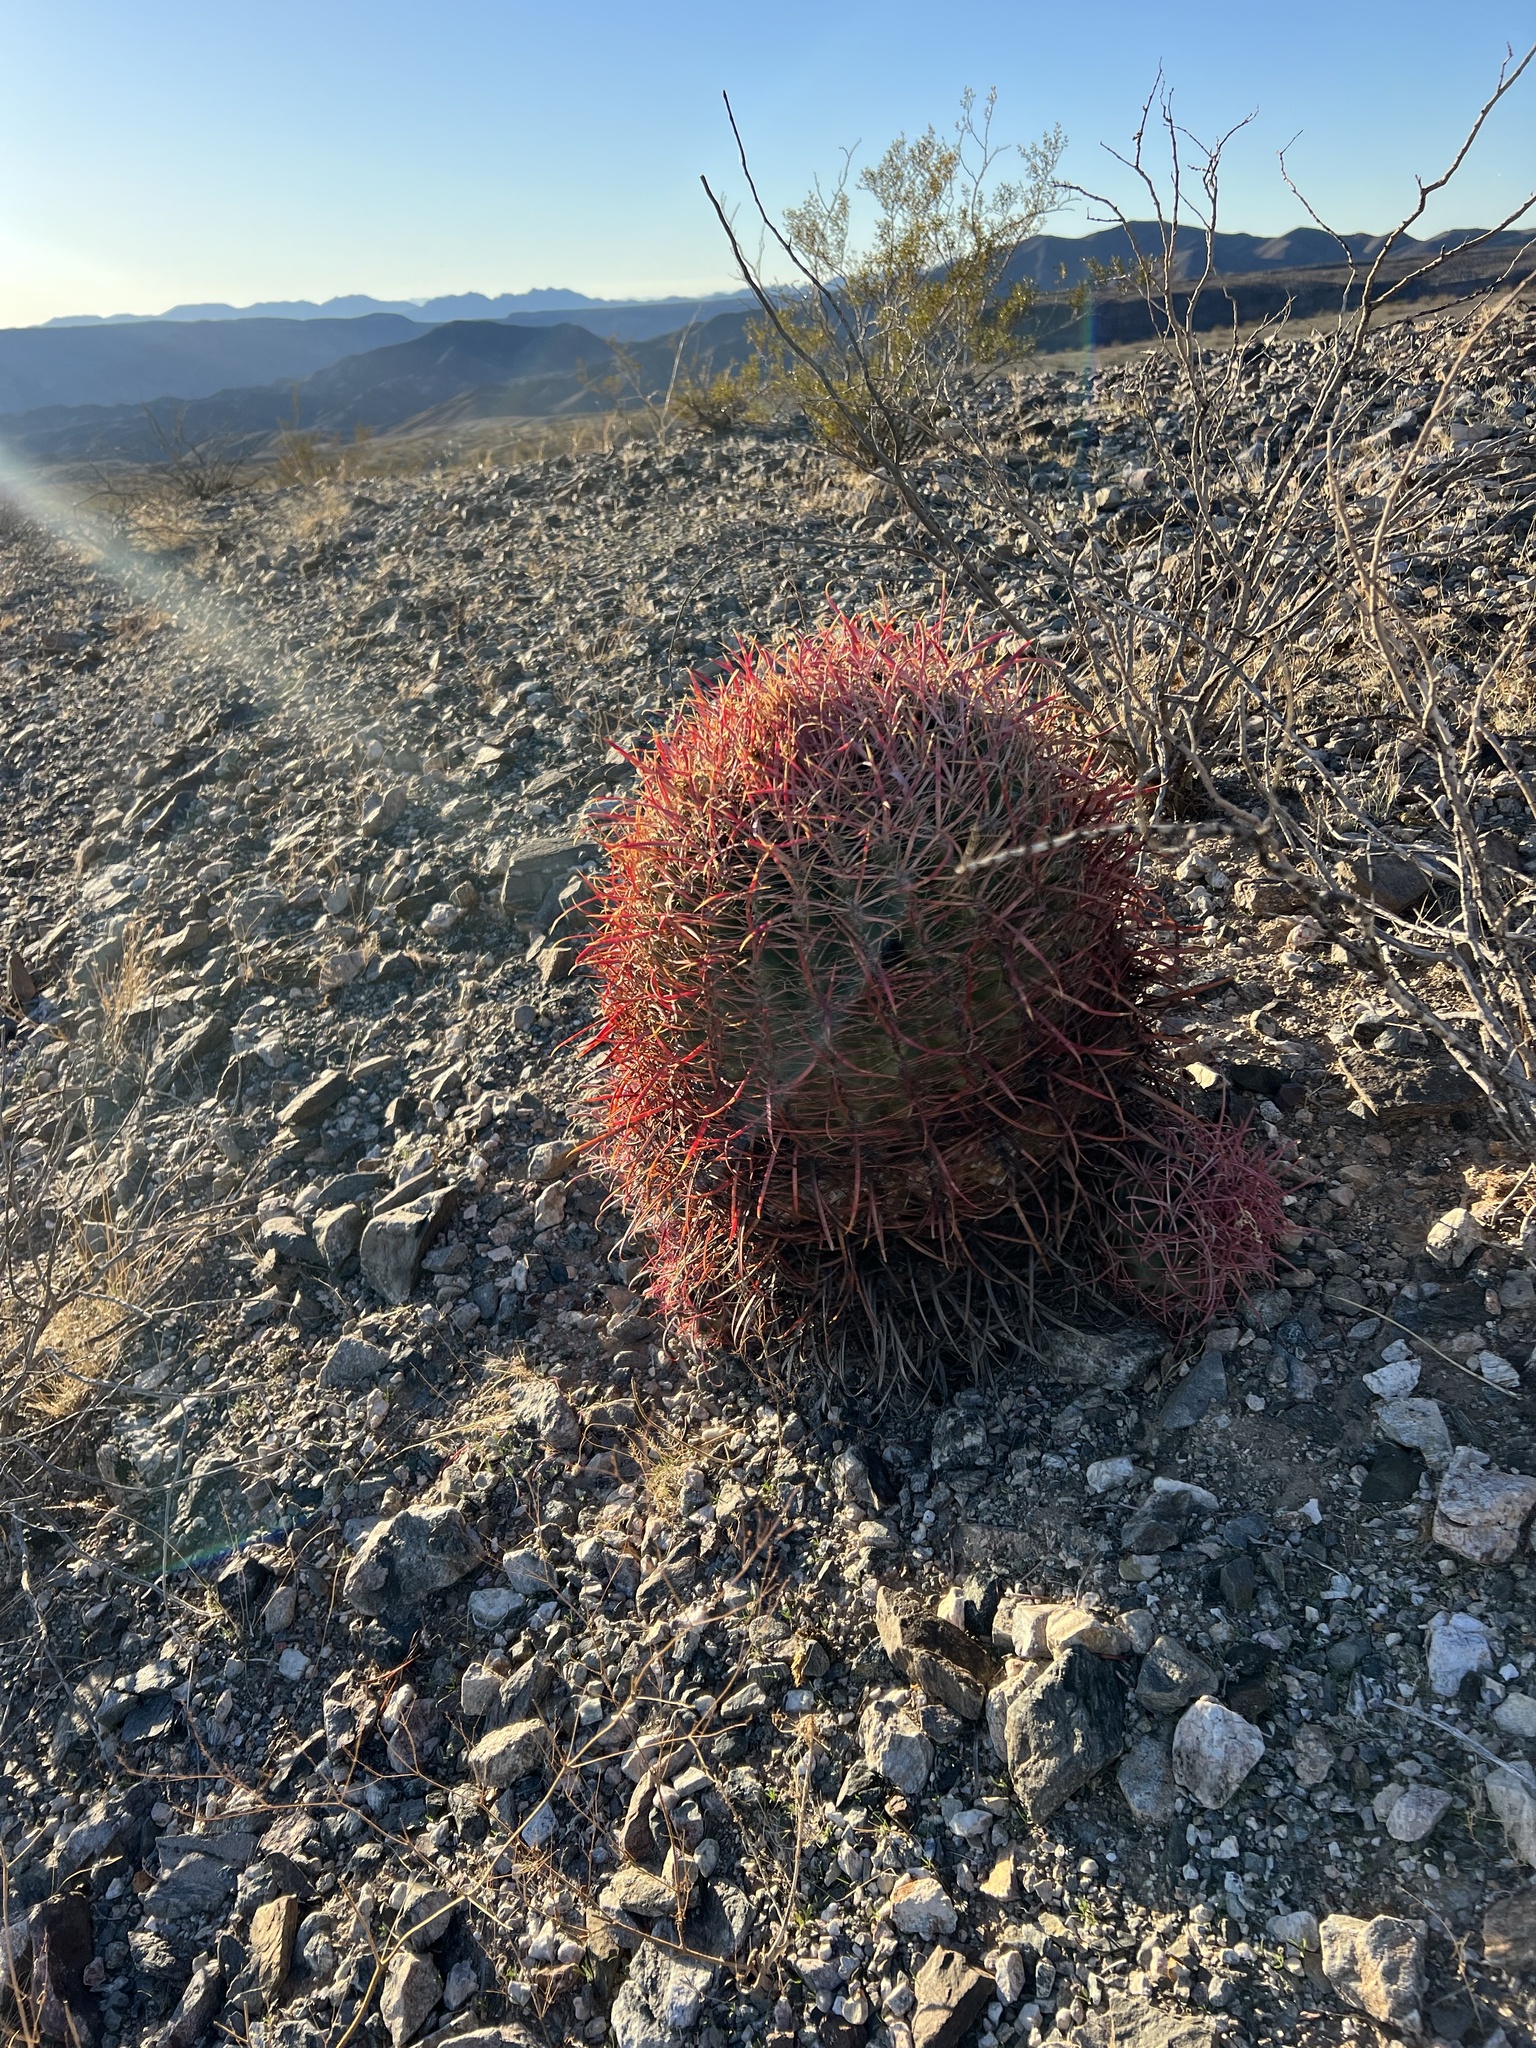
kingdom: Plantae
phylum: Tracheophyta
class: Magnoliopsida
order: Caryophyllales
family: Cactaceae
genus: Ferocactus
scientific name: Ferocactus cylindraceus
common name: California barrel cactus
